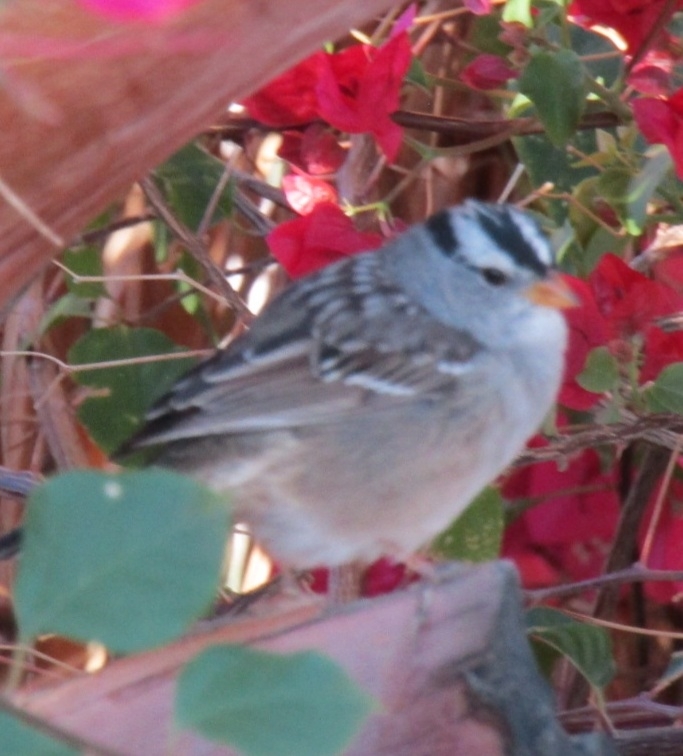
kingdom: Animalia
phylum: Chordata
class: Aves
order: Passeriformes
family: Passerellidae
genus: Zonotrichia
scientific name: Zonotrichia leucophrys
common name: White-crowned sparrow
